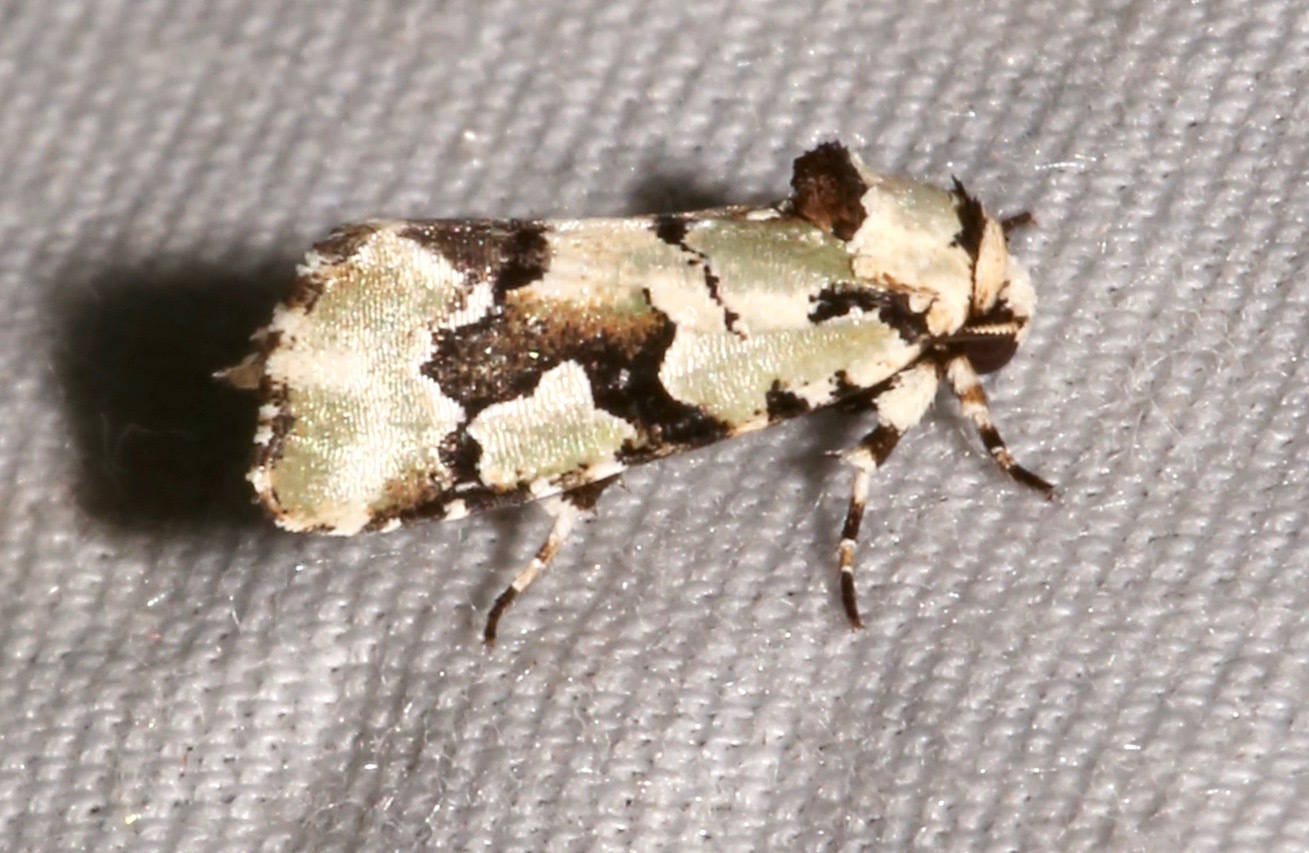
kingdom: Animalia
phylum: Arthropoda
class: Insecta
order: Lepidoptera
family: Noctuidae
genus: Emarginea
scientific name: Emarginea percara
